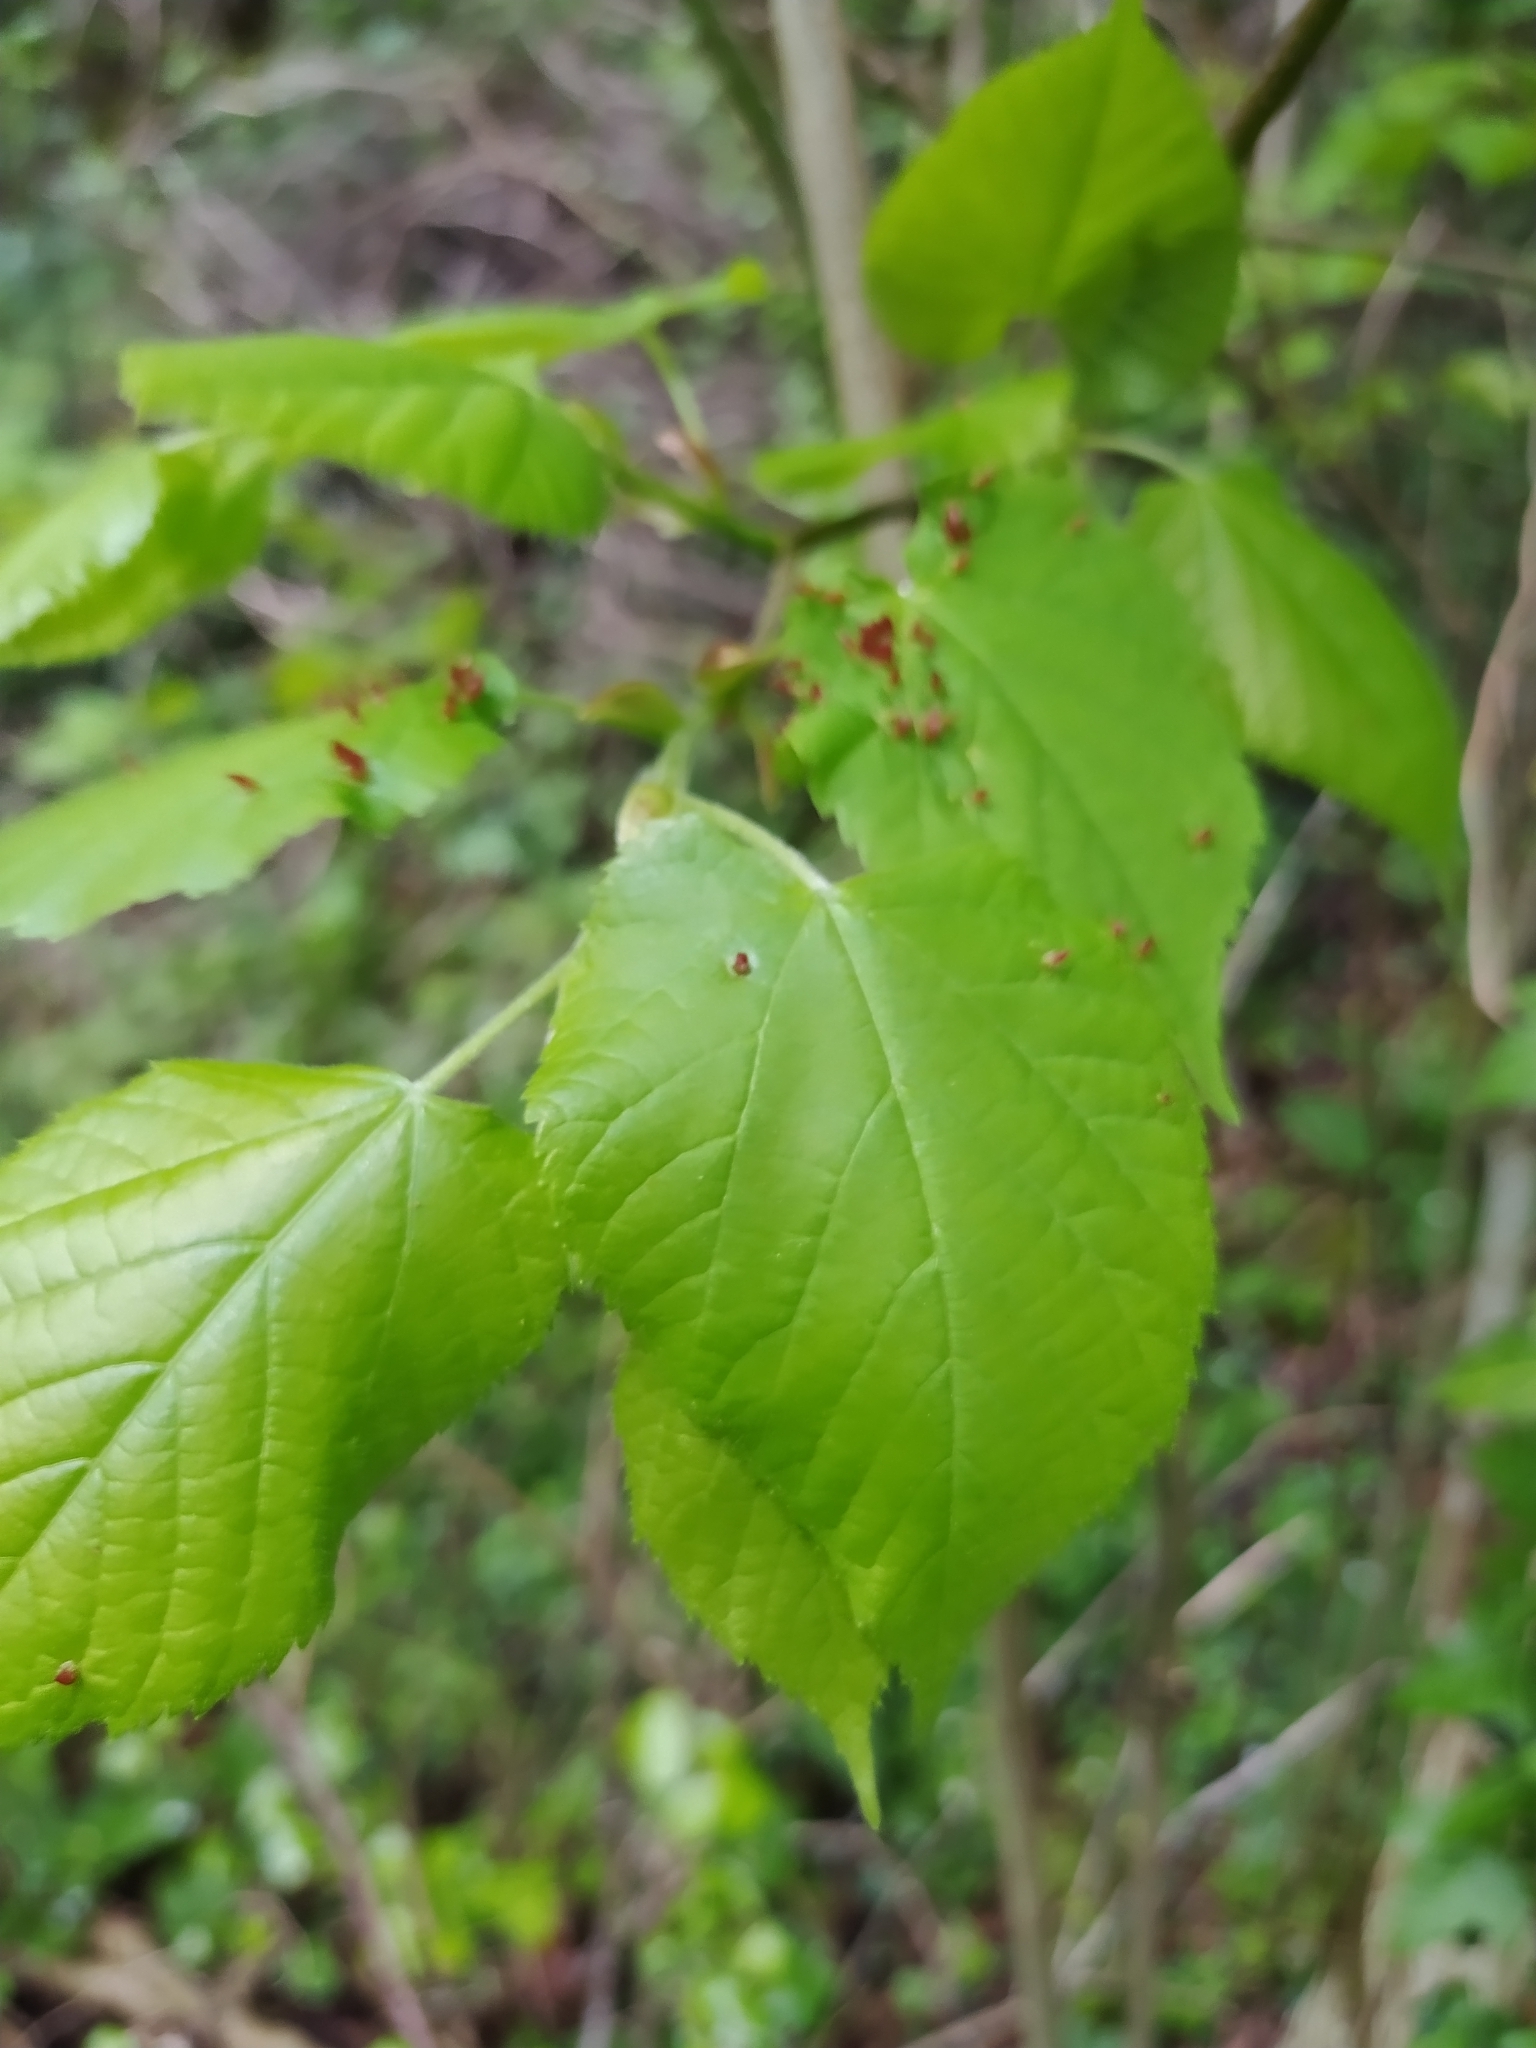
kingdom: Plantae
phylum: Tracheophyta
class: Magnoliopsida
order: Malvales
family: Malvaceae
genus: Tilia
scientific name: Tilia platyphyllos
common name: Large-leaved lime
